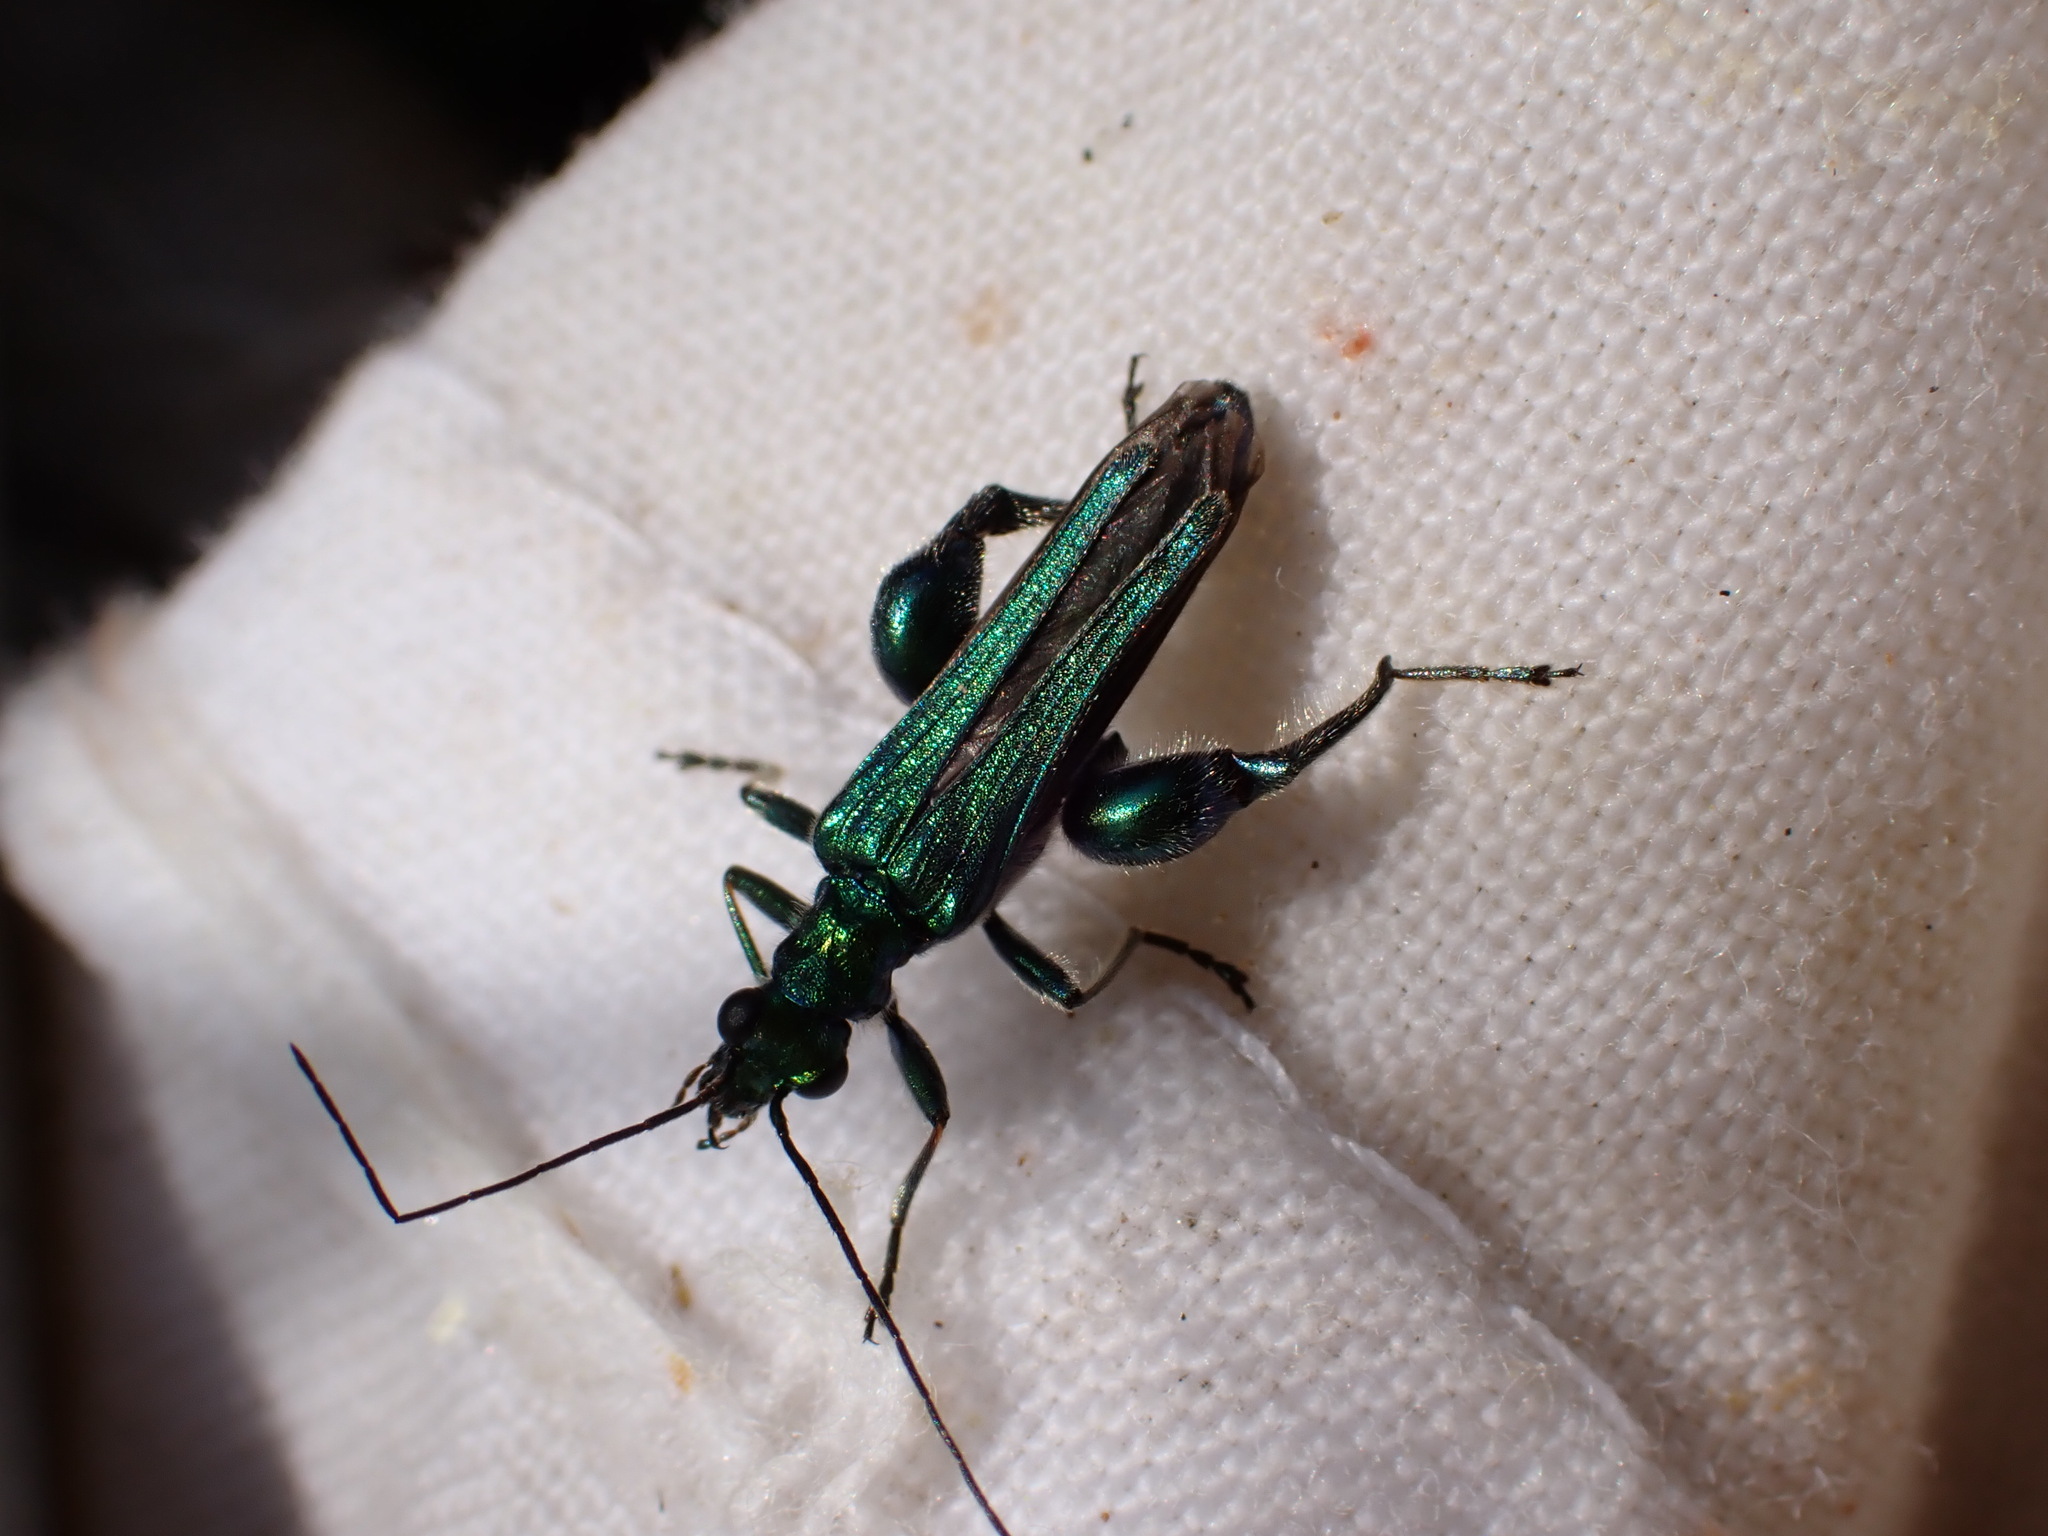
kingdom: Animalia
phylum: Arthropoda
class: Insecta
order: Coleoptera
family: Oedemeridae
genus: Oedemera
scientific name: Oedemera nobilis
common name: Swollen-thighed beetle
